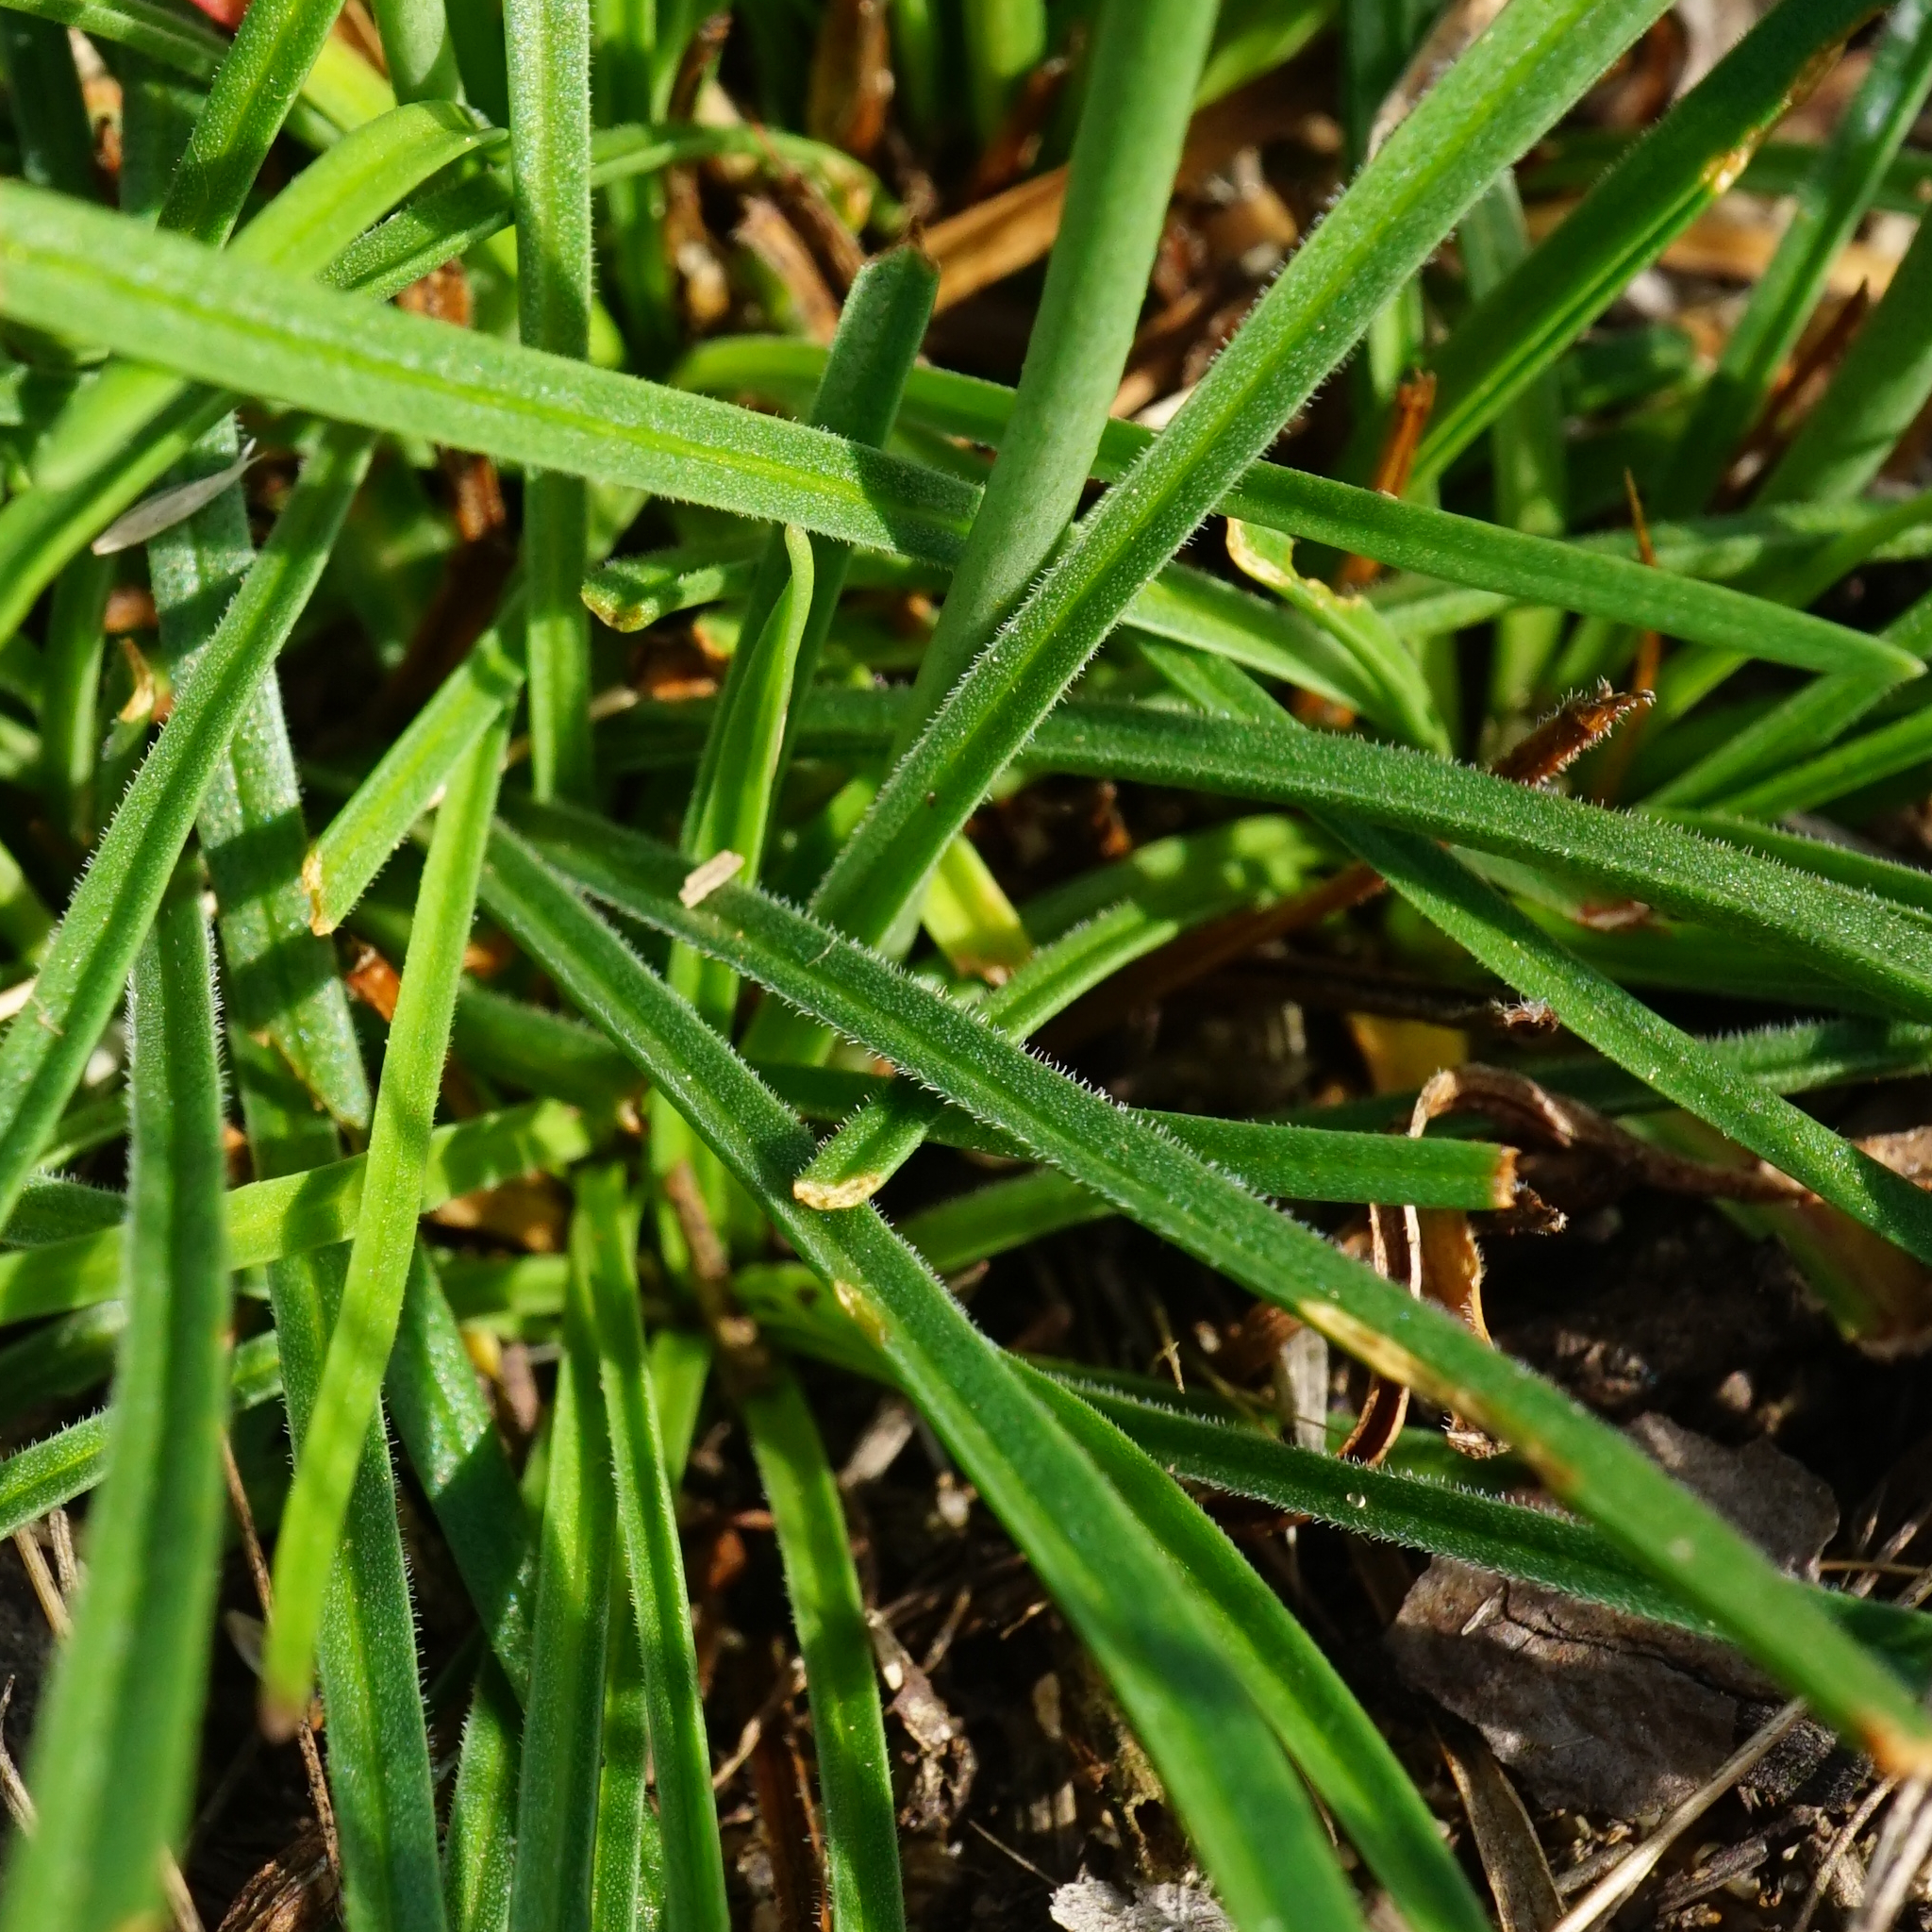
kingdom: Plantae
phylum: Tracheophyta
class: Magnoliopsida
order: Caryophyllales
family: Plumbaginaceae
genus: Armeria
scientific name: Armeria maritima
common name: Thrift
